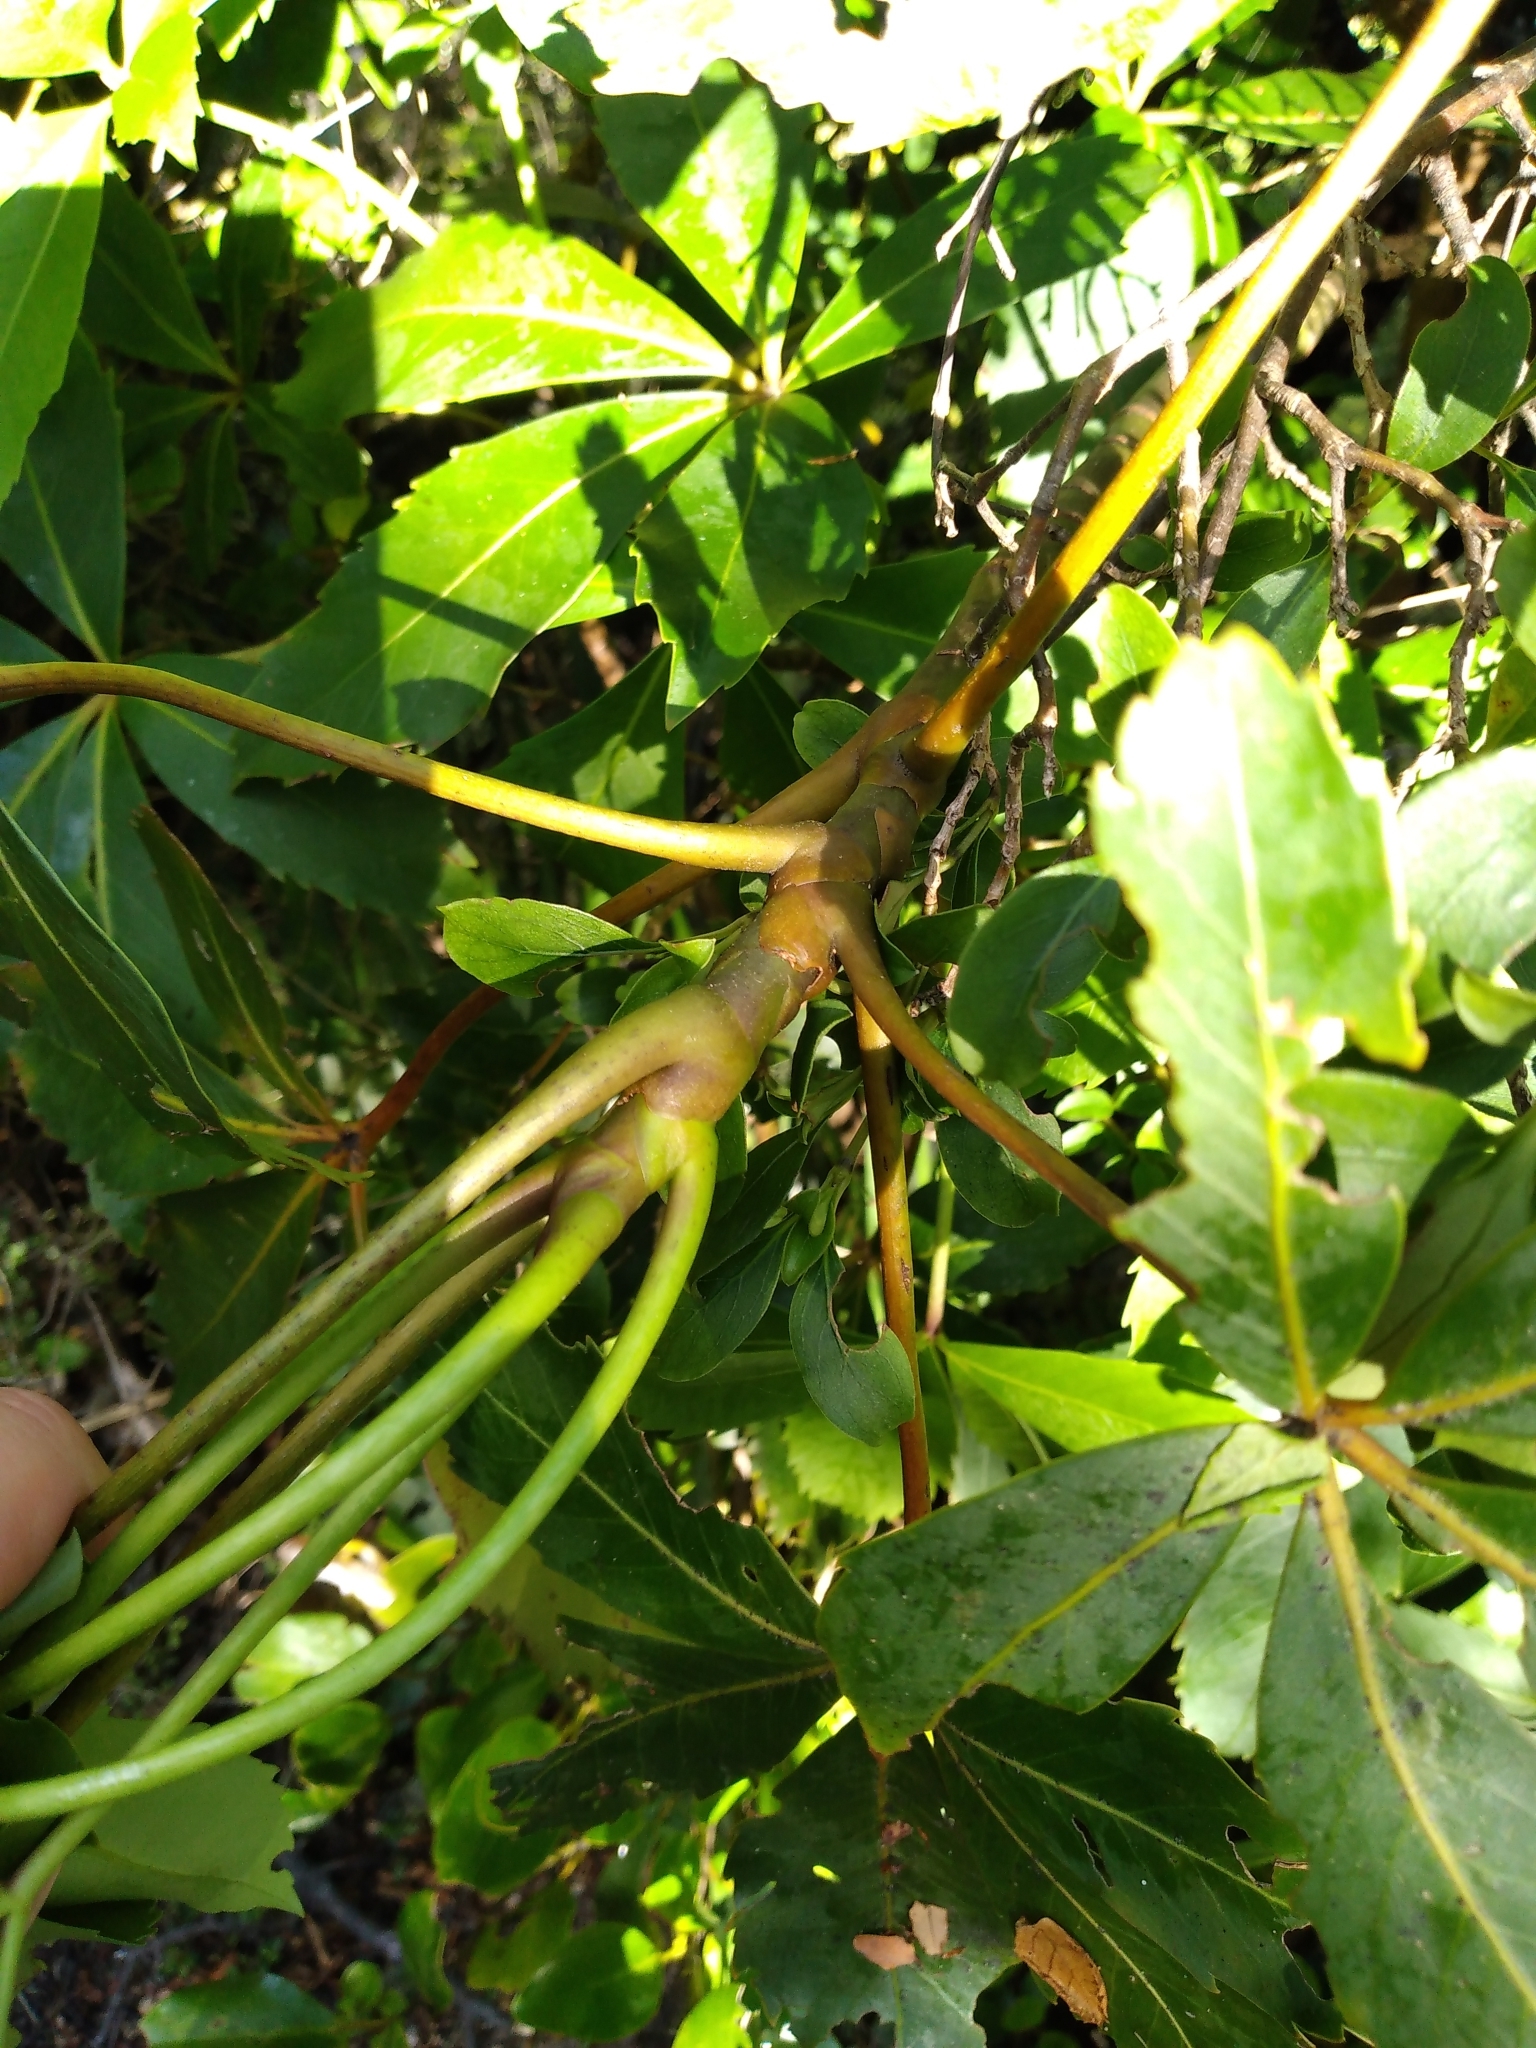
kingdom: Plantae
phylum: Tracheophyta
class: Magnoliopsida
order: Apiales
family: Araliaceae
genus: Neopanax
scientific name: Neopanax colensoi
